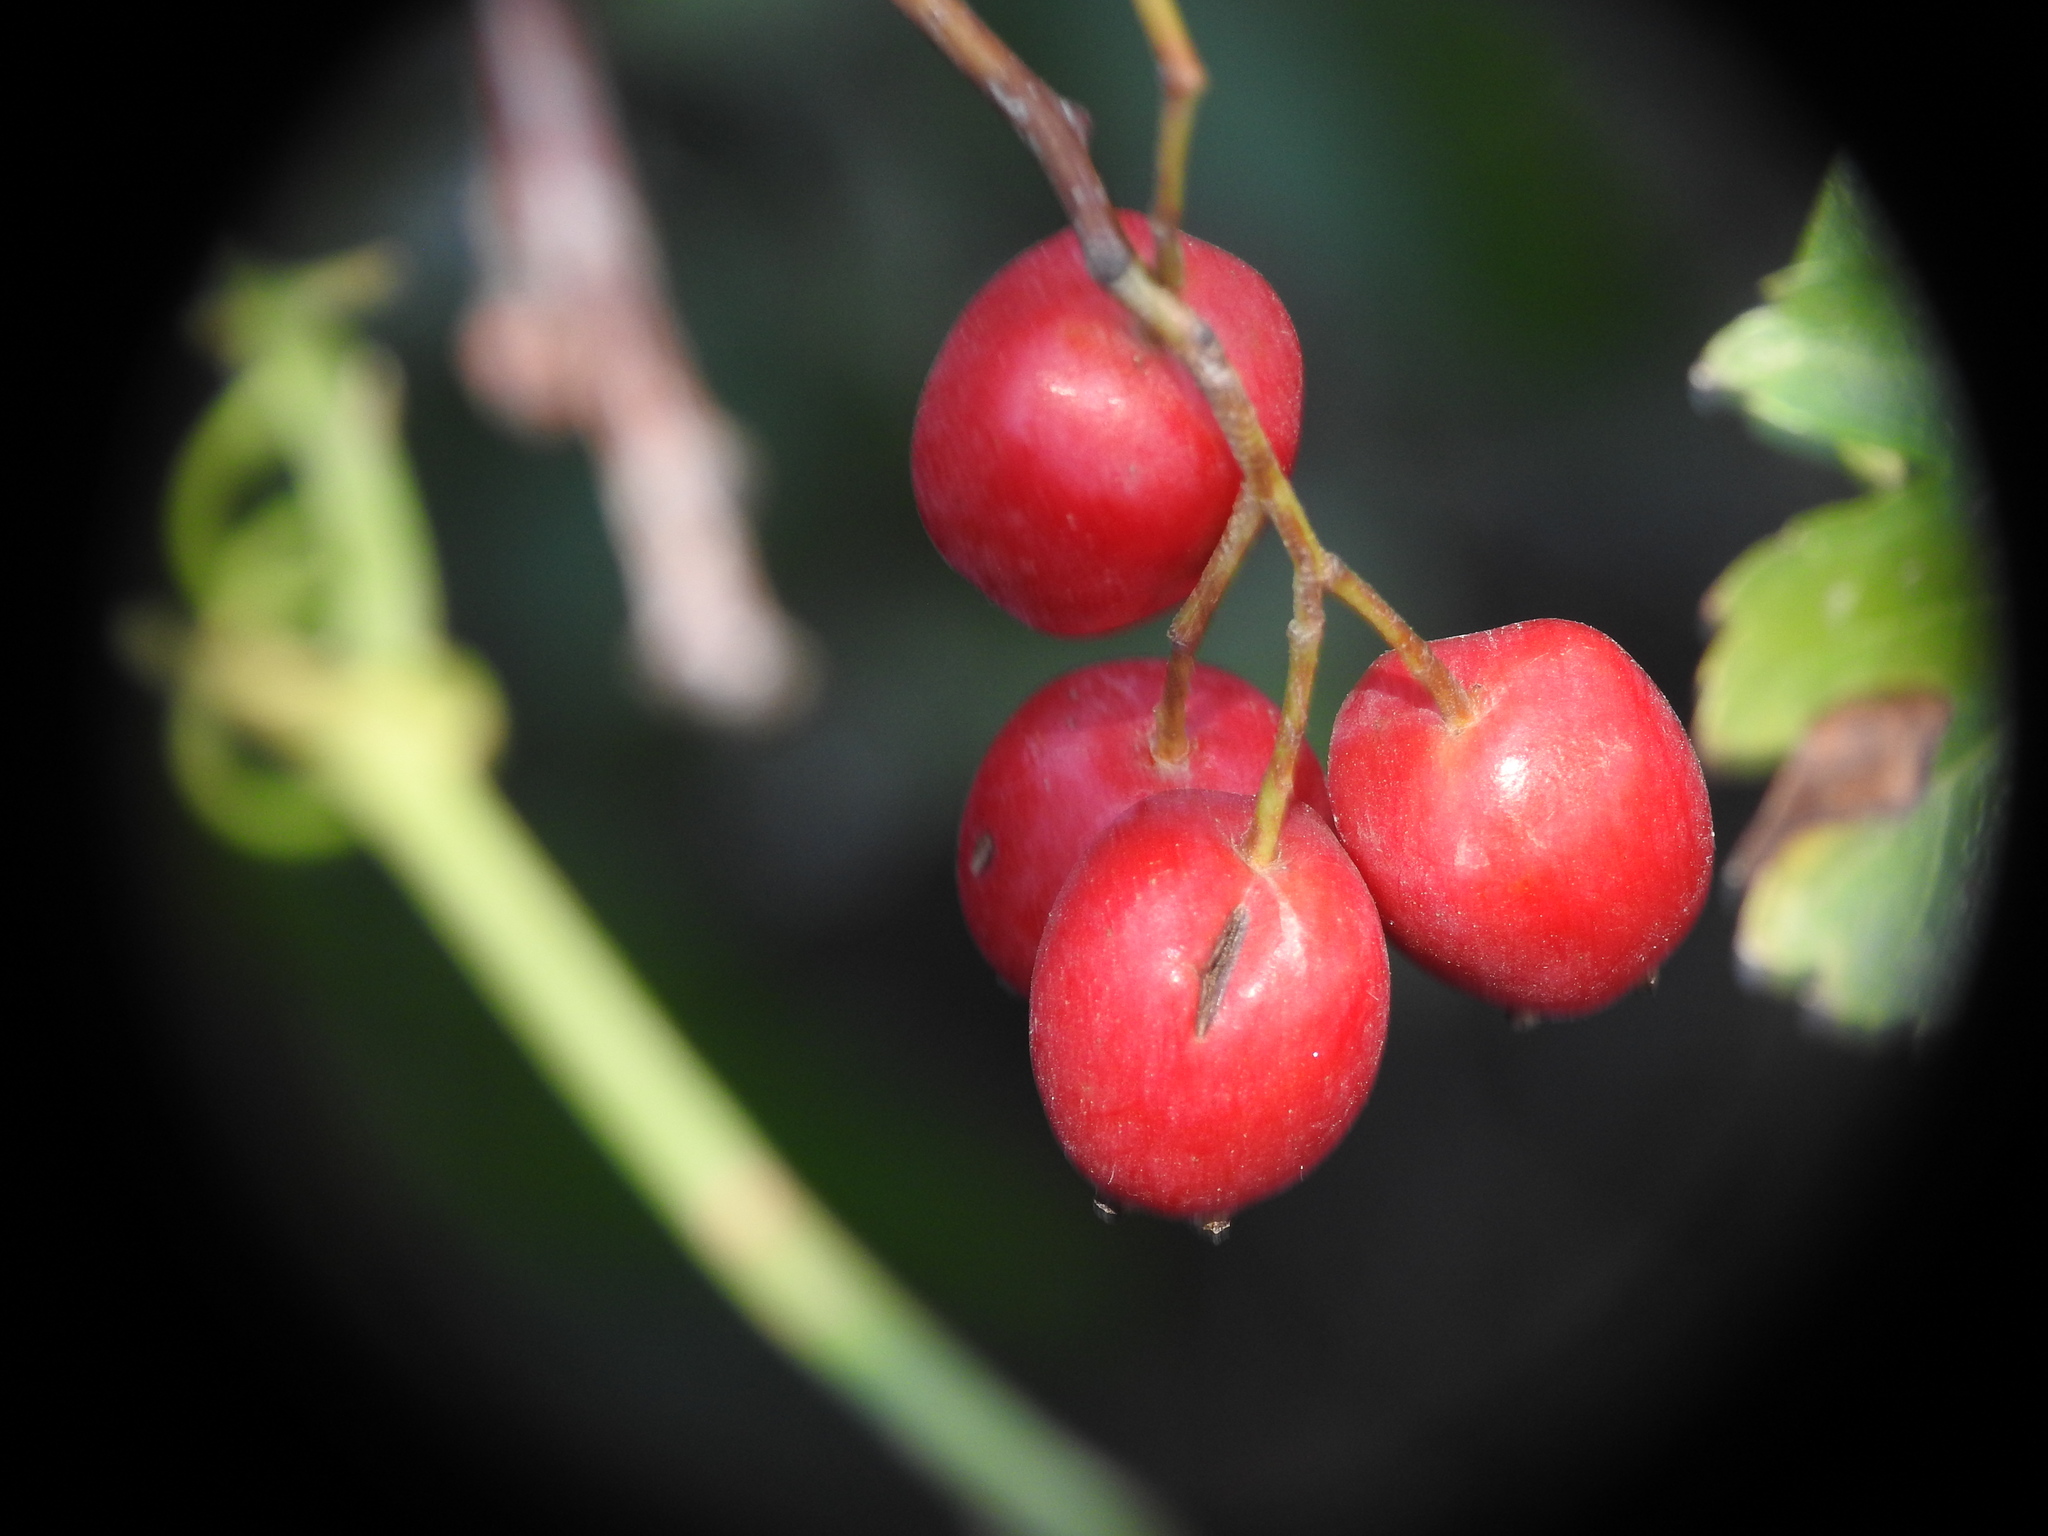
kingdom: Plantae
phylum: Tracheophyta
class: Magnoliopsida
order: Rosales
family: Rosaceae
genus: Crataegus
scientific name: Crataegus monogyna
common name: Hawthorn
